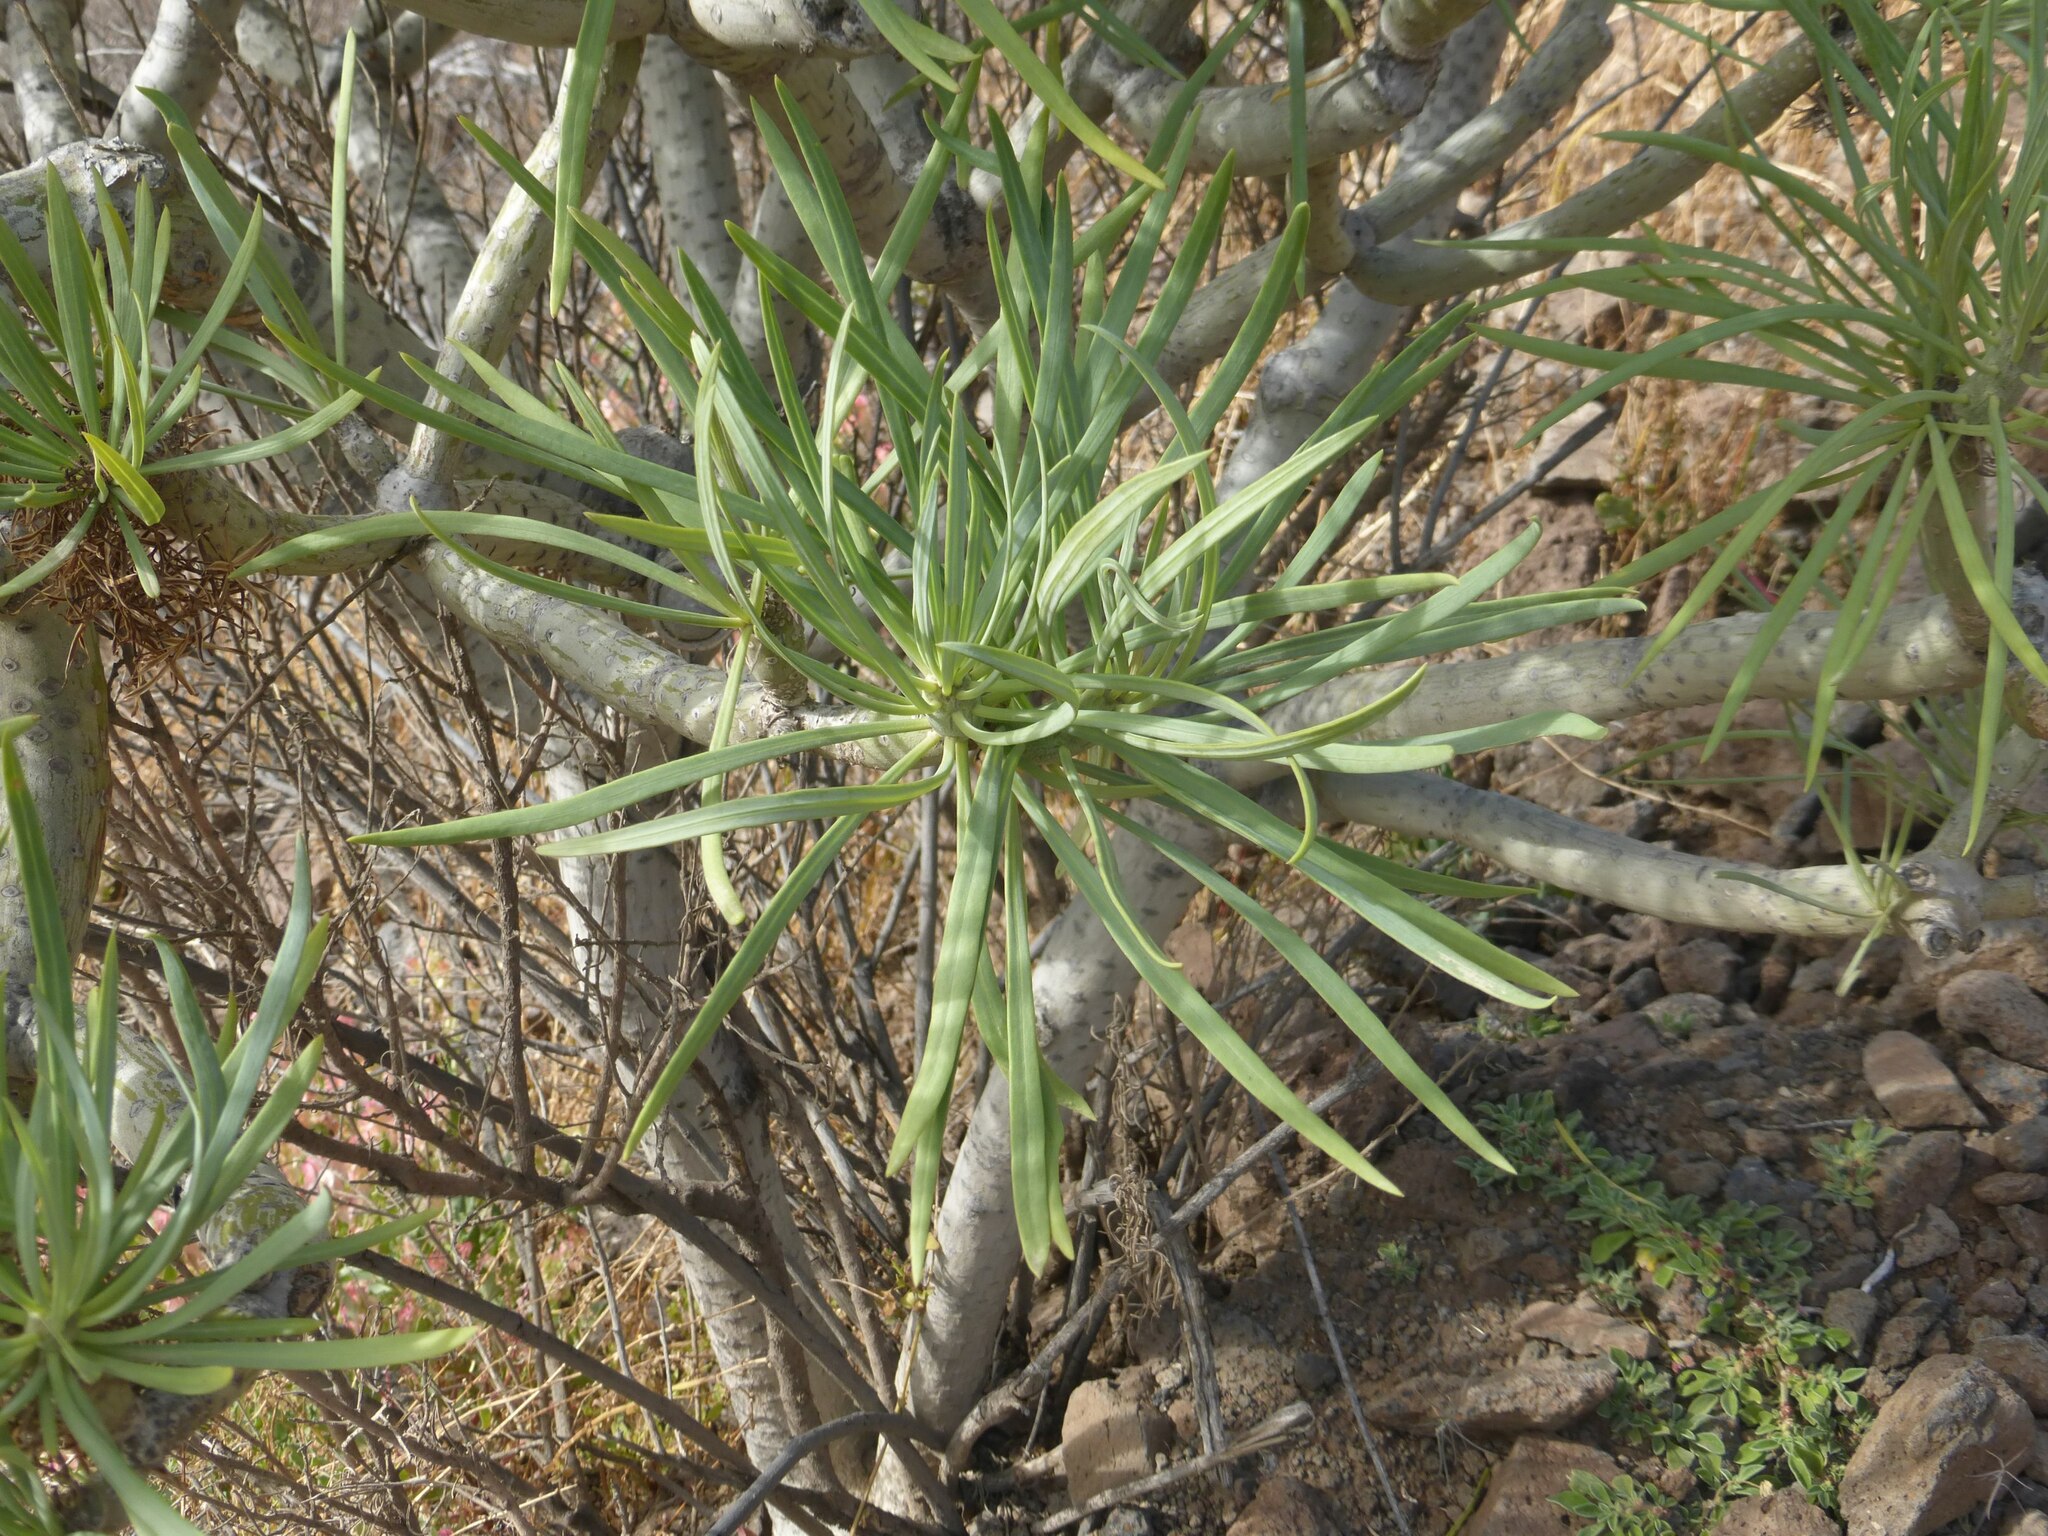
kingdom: Plantae
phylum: Tracheophyta
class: Magnoliopsida
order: Asterales
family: Asteraceae
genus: Kleinia
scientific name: Kleinia neriifolia
